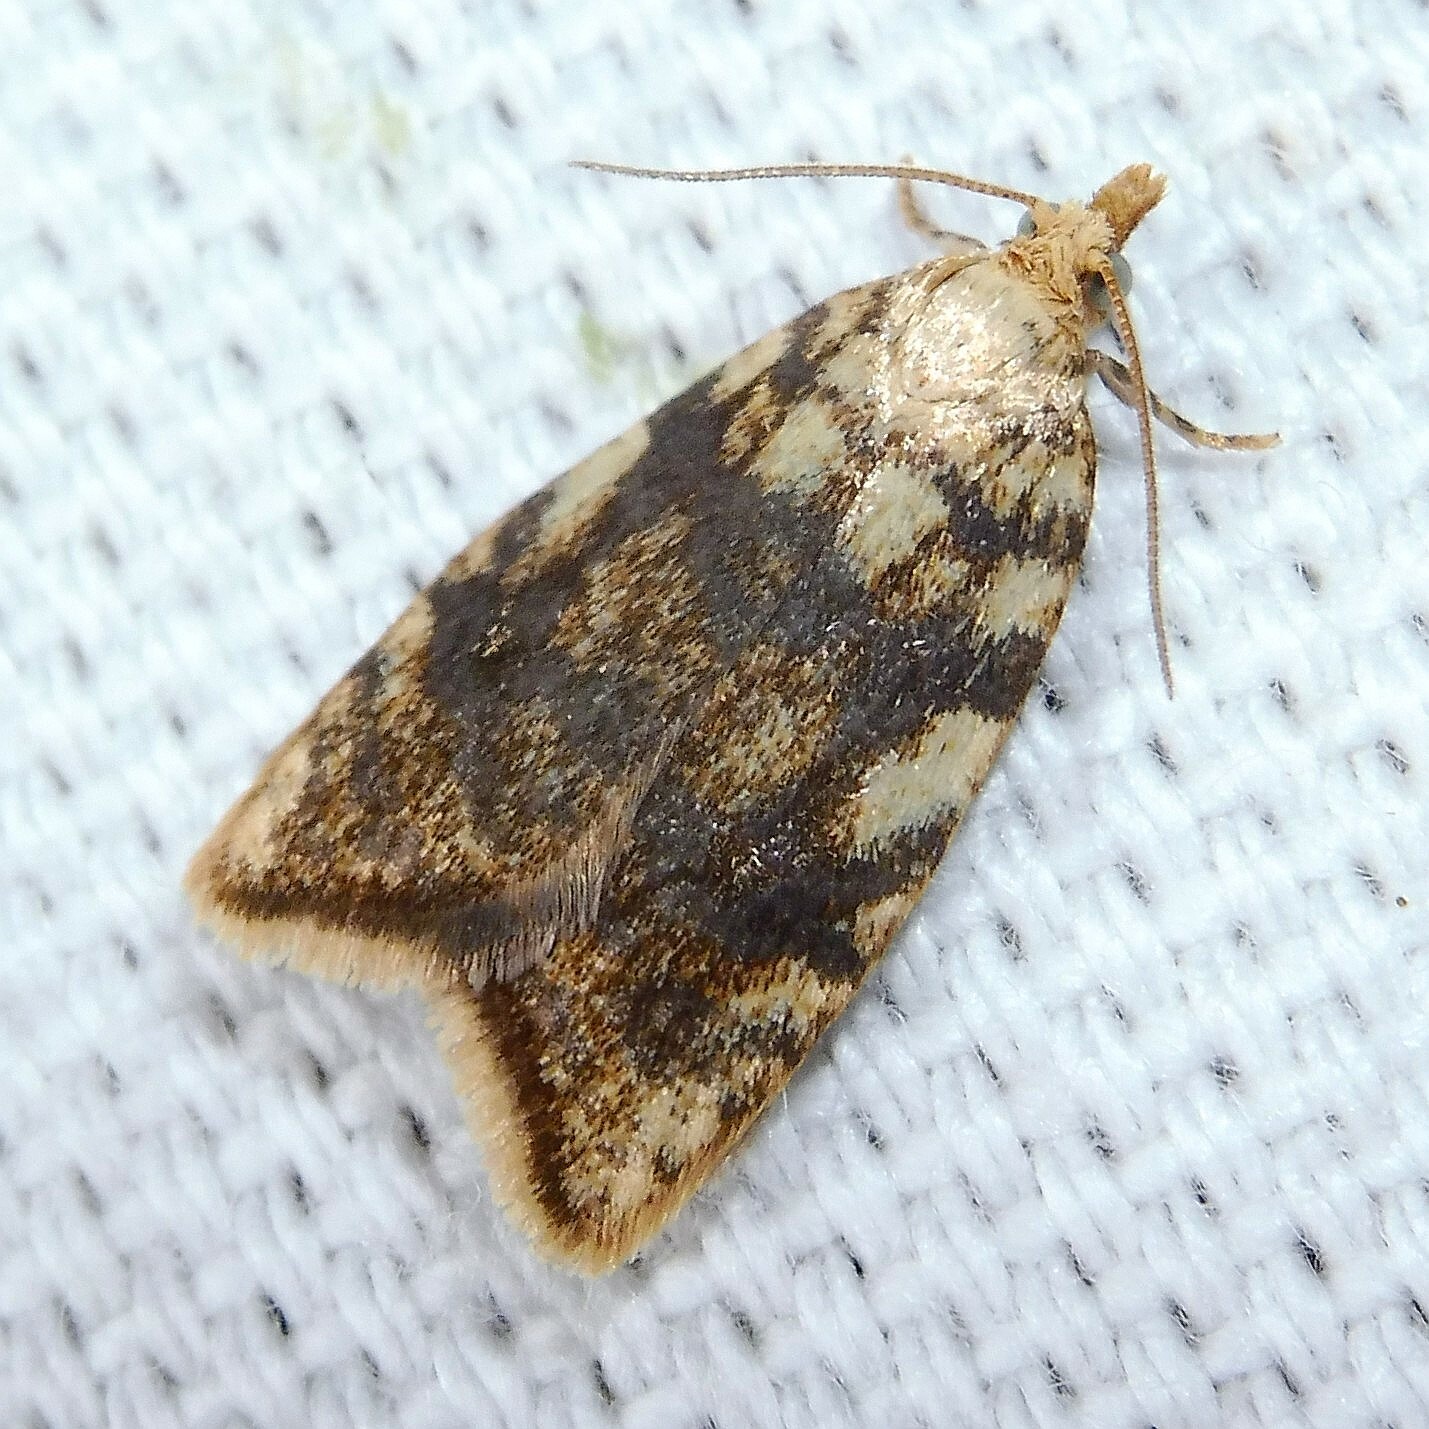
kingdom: Animalia
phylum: Arthropoda
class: Insecta
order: Lepidoptera
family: Tortricidae
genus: Aleimma
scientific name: Aleimma loeflingiana
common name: Yellow oak button
